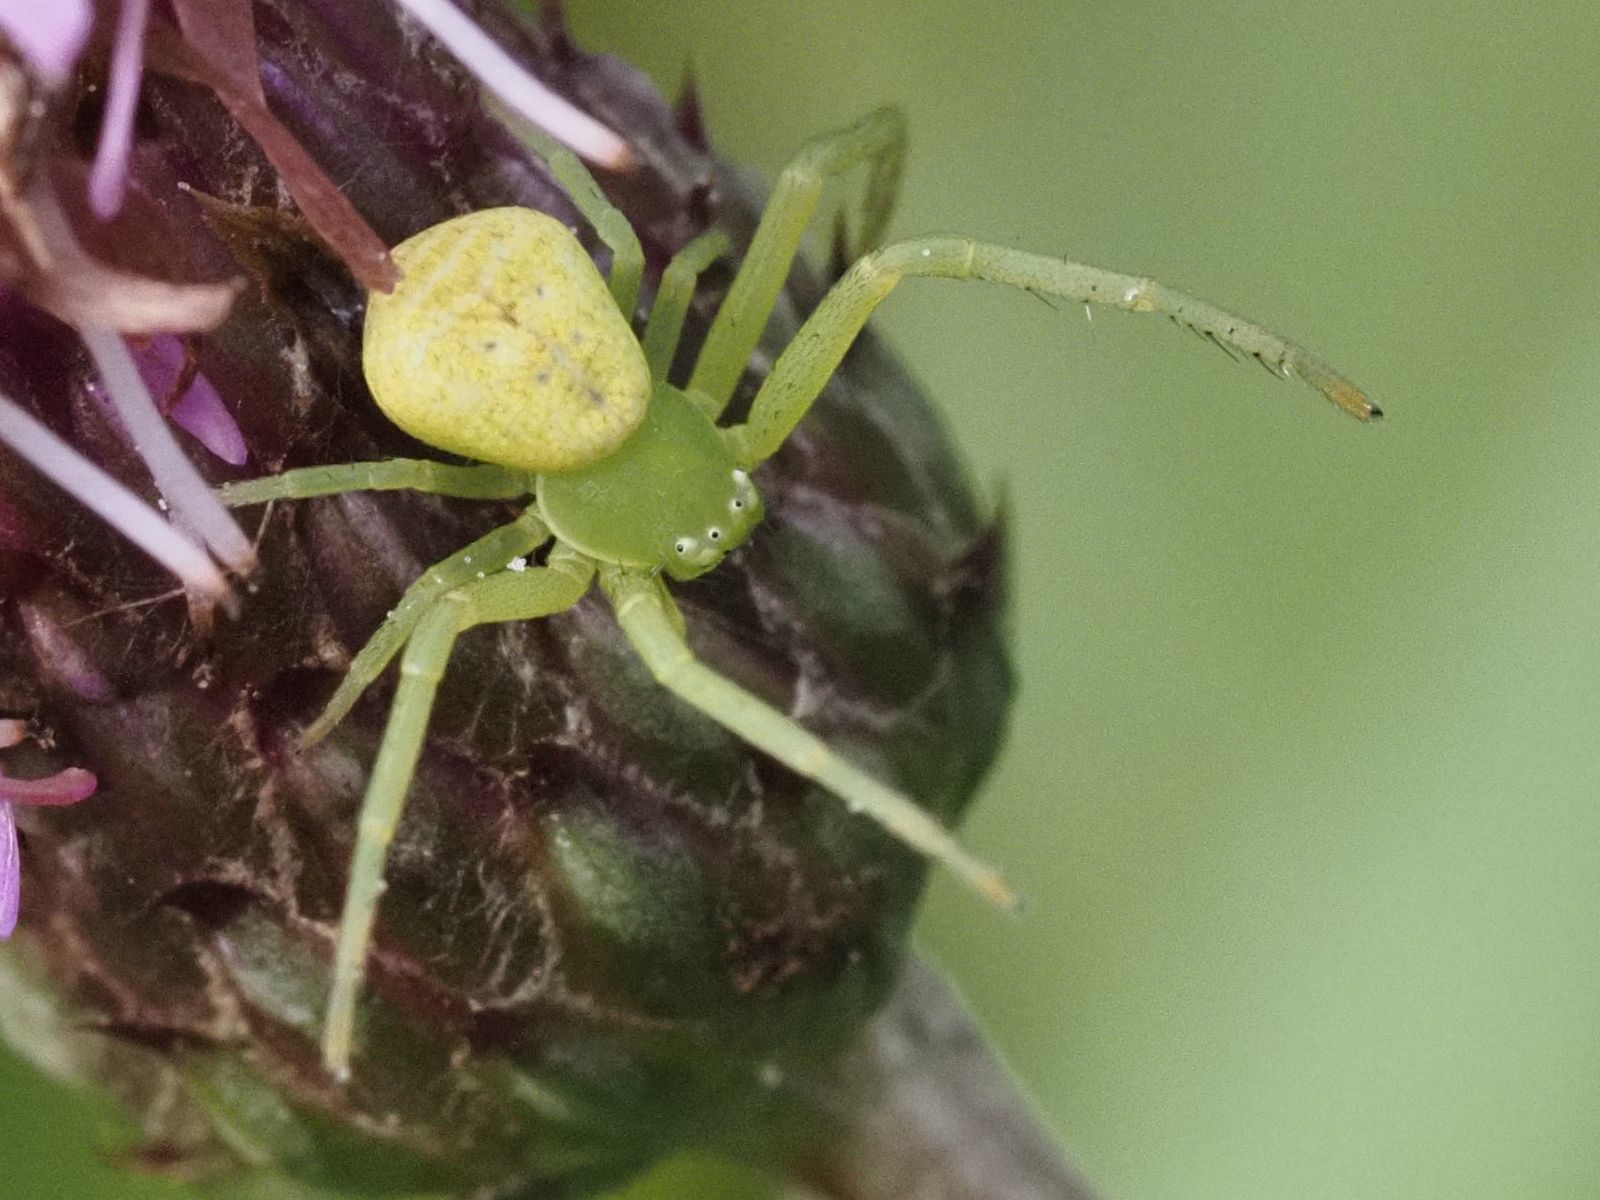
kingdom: Animalia
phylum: Arthropoda
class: Arachnida
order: Araneae
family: Thomisidae
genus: Ebrechtella
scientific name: Ebrechtella tricuspidata
